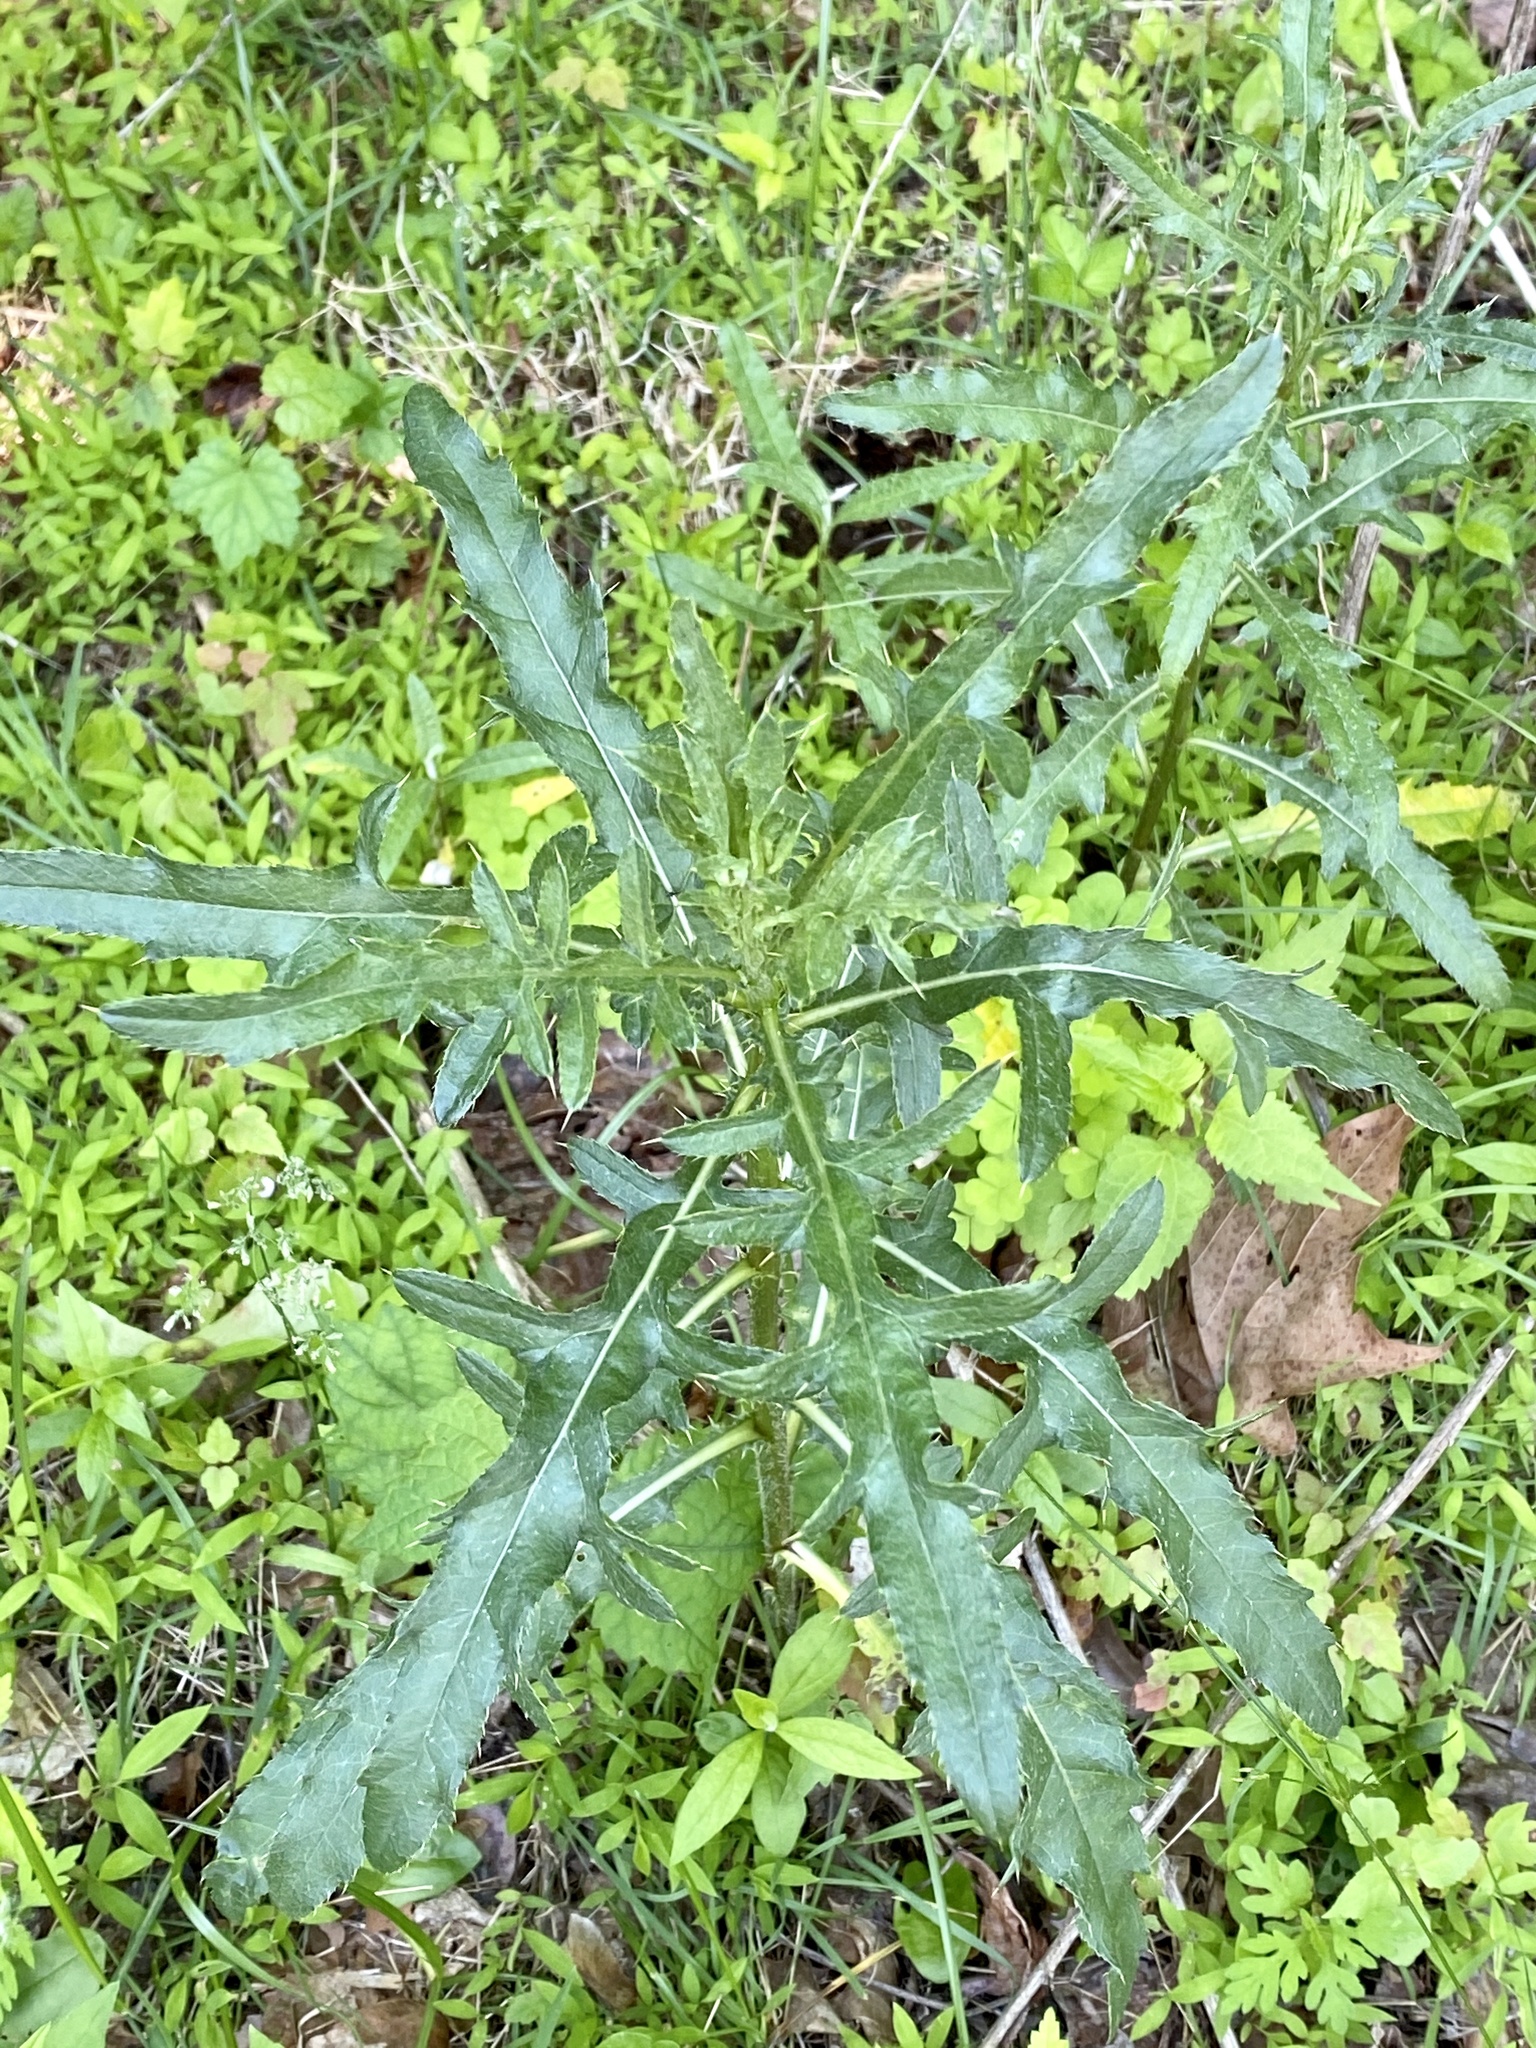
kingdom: Plantae
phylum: Tracheophyta
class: Magnoliopsida
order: Asterales
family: Asteraceae
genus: Cirsium
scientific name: Cirsium arvense
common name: Creeping thistle
